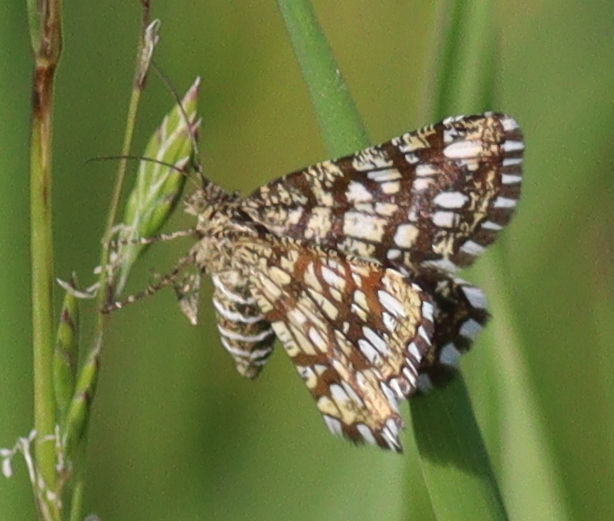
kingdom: Animalia
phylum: Arthropoda
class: Insecta
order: Lepidoptera
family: Geometridae
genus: Chiasmia
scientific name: Chiasmia clathrata
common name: Latticed heath
